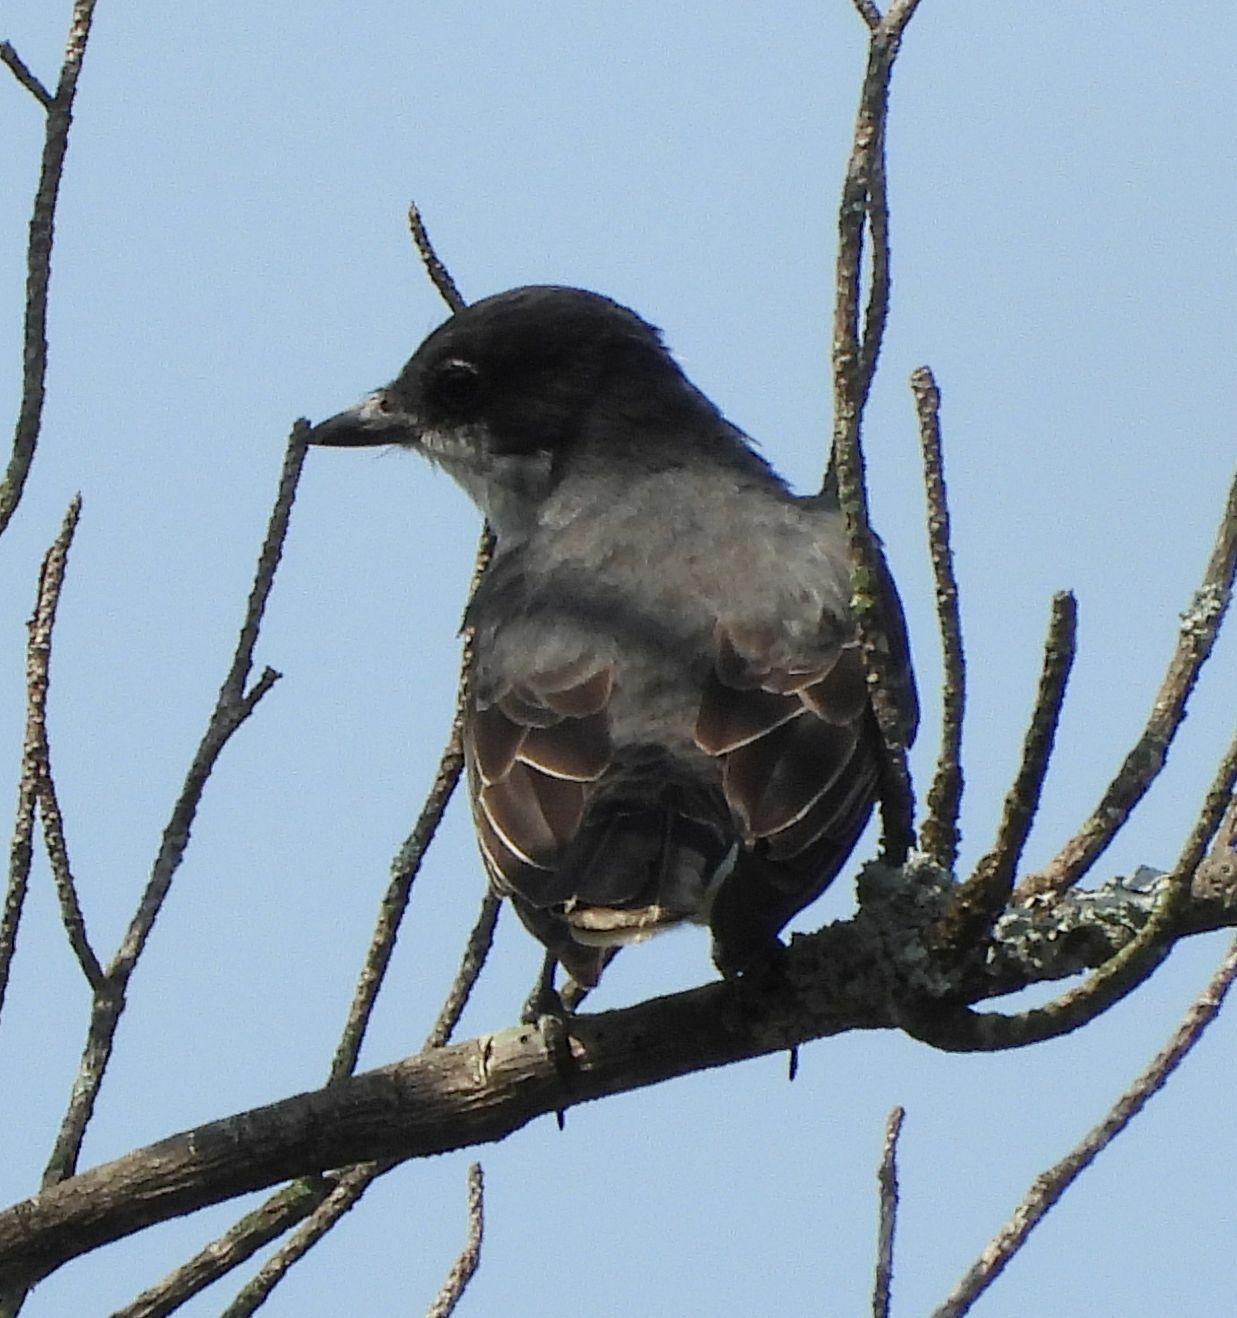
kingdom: Animalia
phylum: Chordata
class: Aves
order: Passeriformes
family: Tyrannidae
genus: Tyrannus
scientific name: Tyrannus tyrannus
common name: Eastern kingbird
